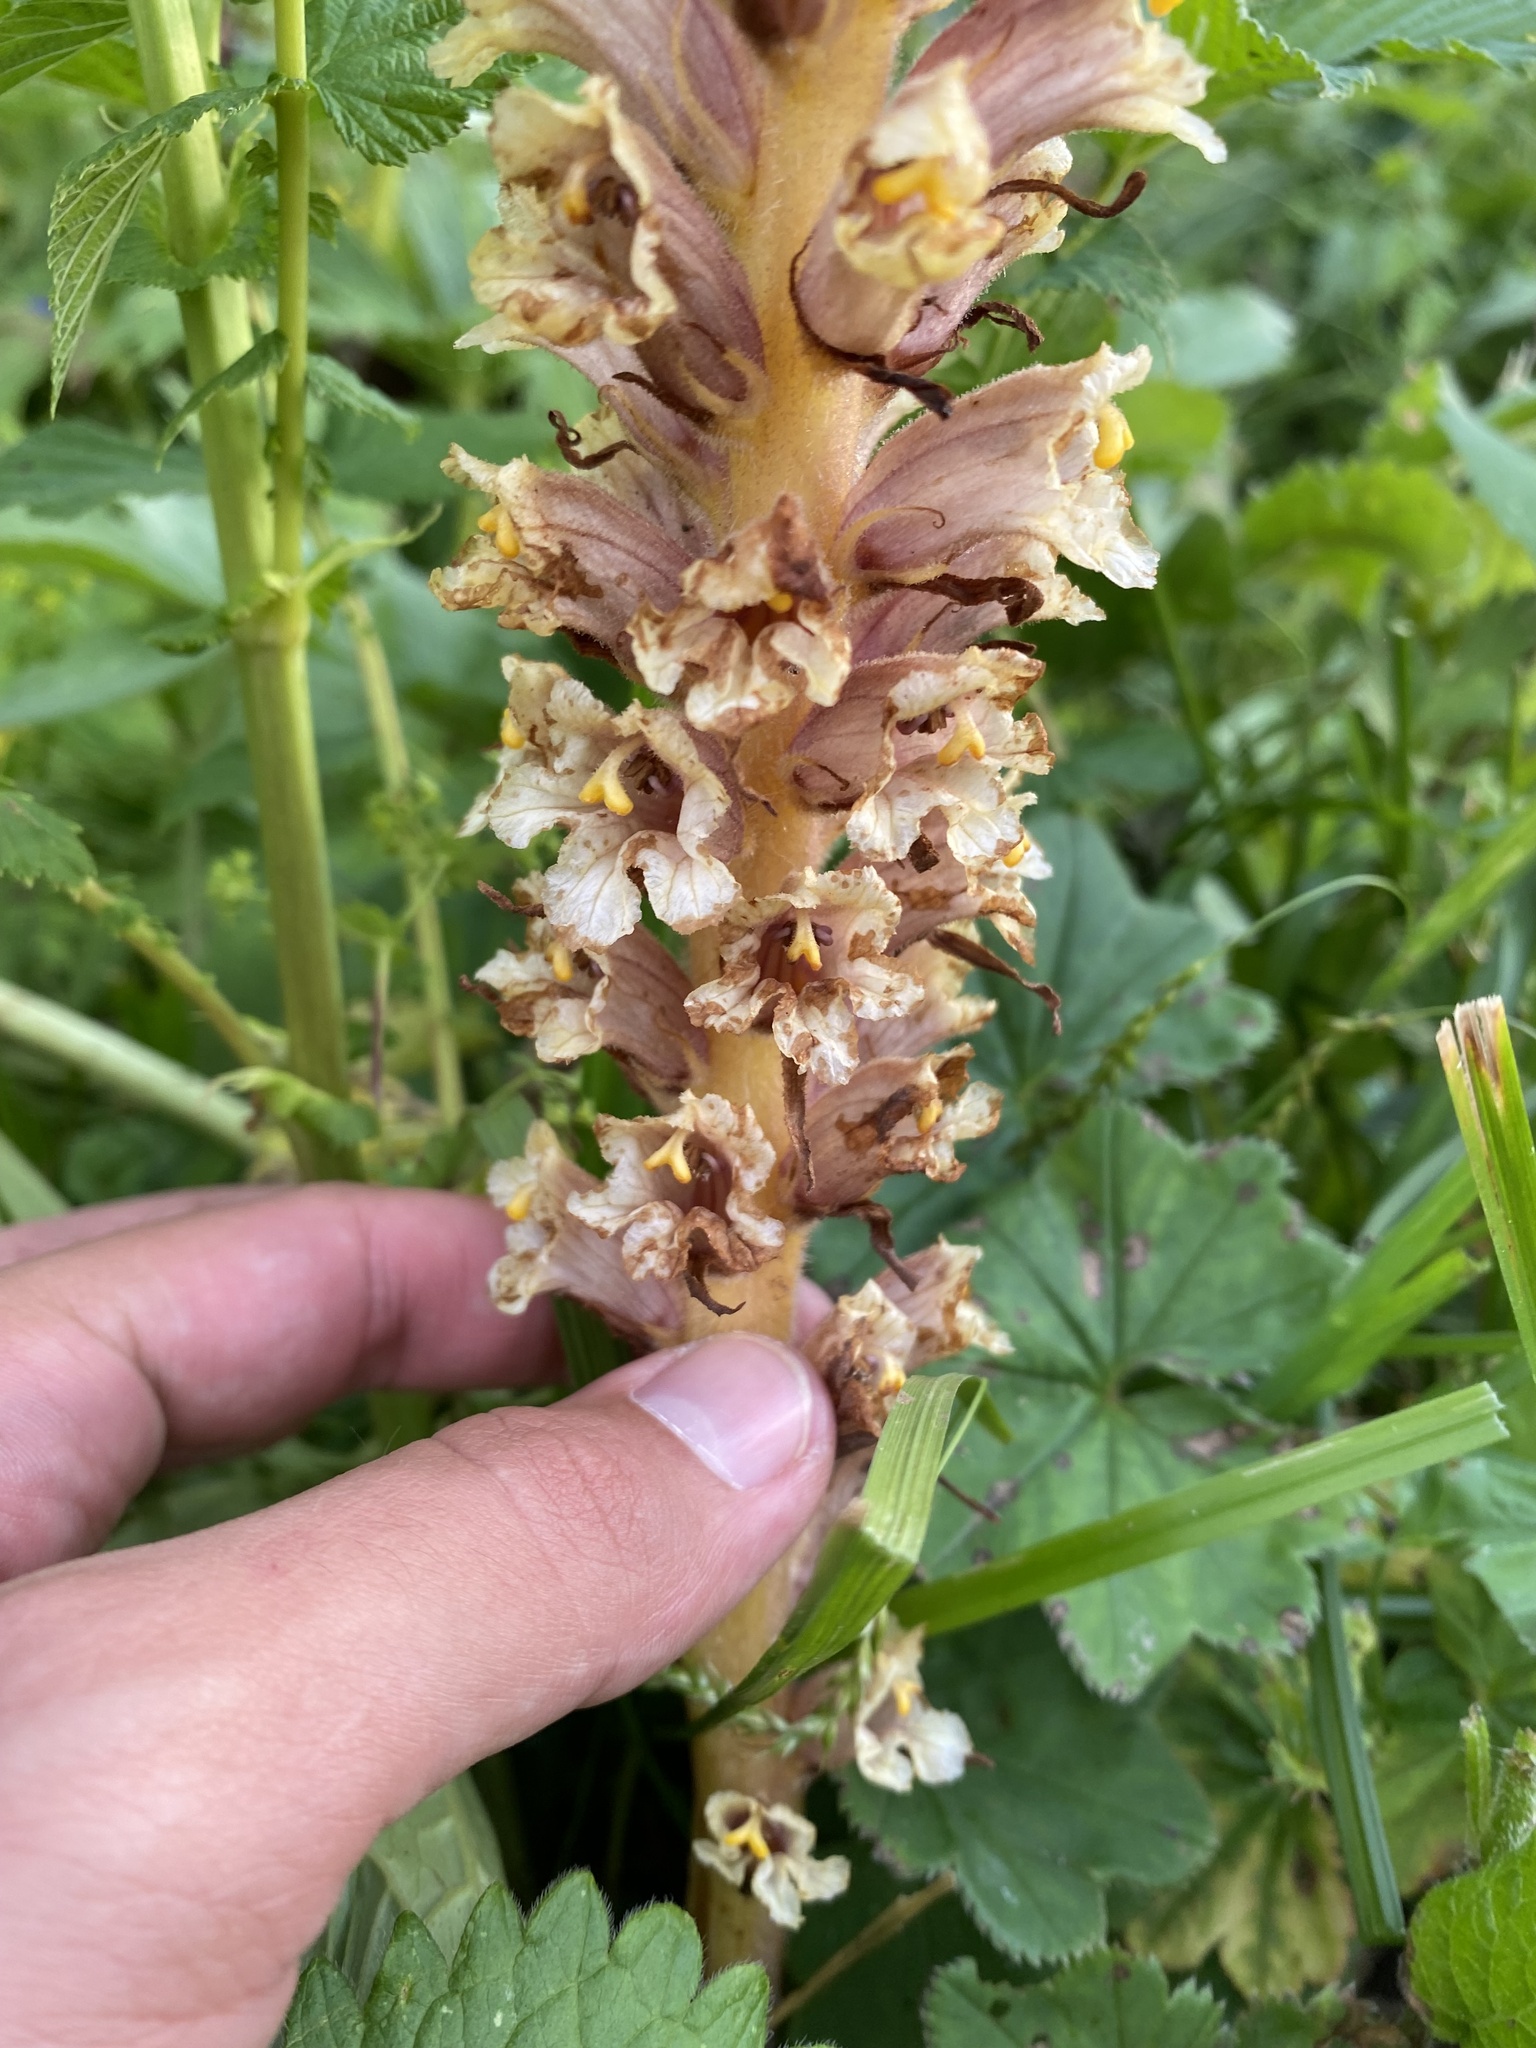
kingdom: Plantae
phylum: Tracheophyta
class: Magnoliopsida
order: Lamiales
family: Orobanchaceae
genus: Orobanche
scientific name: Orobanche grossheimii
